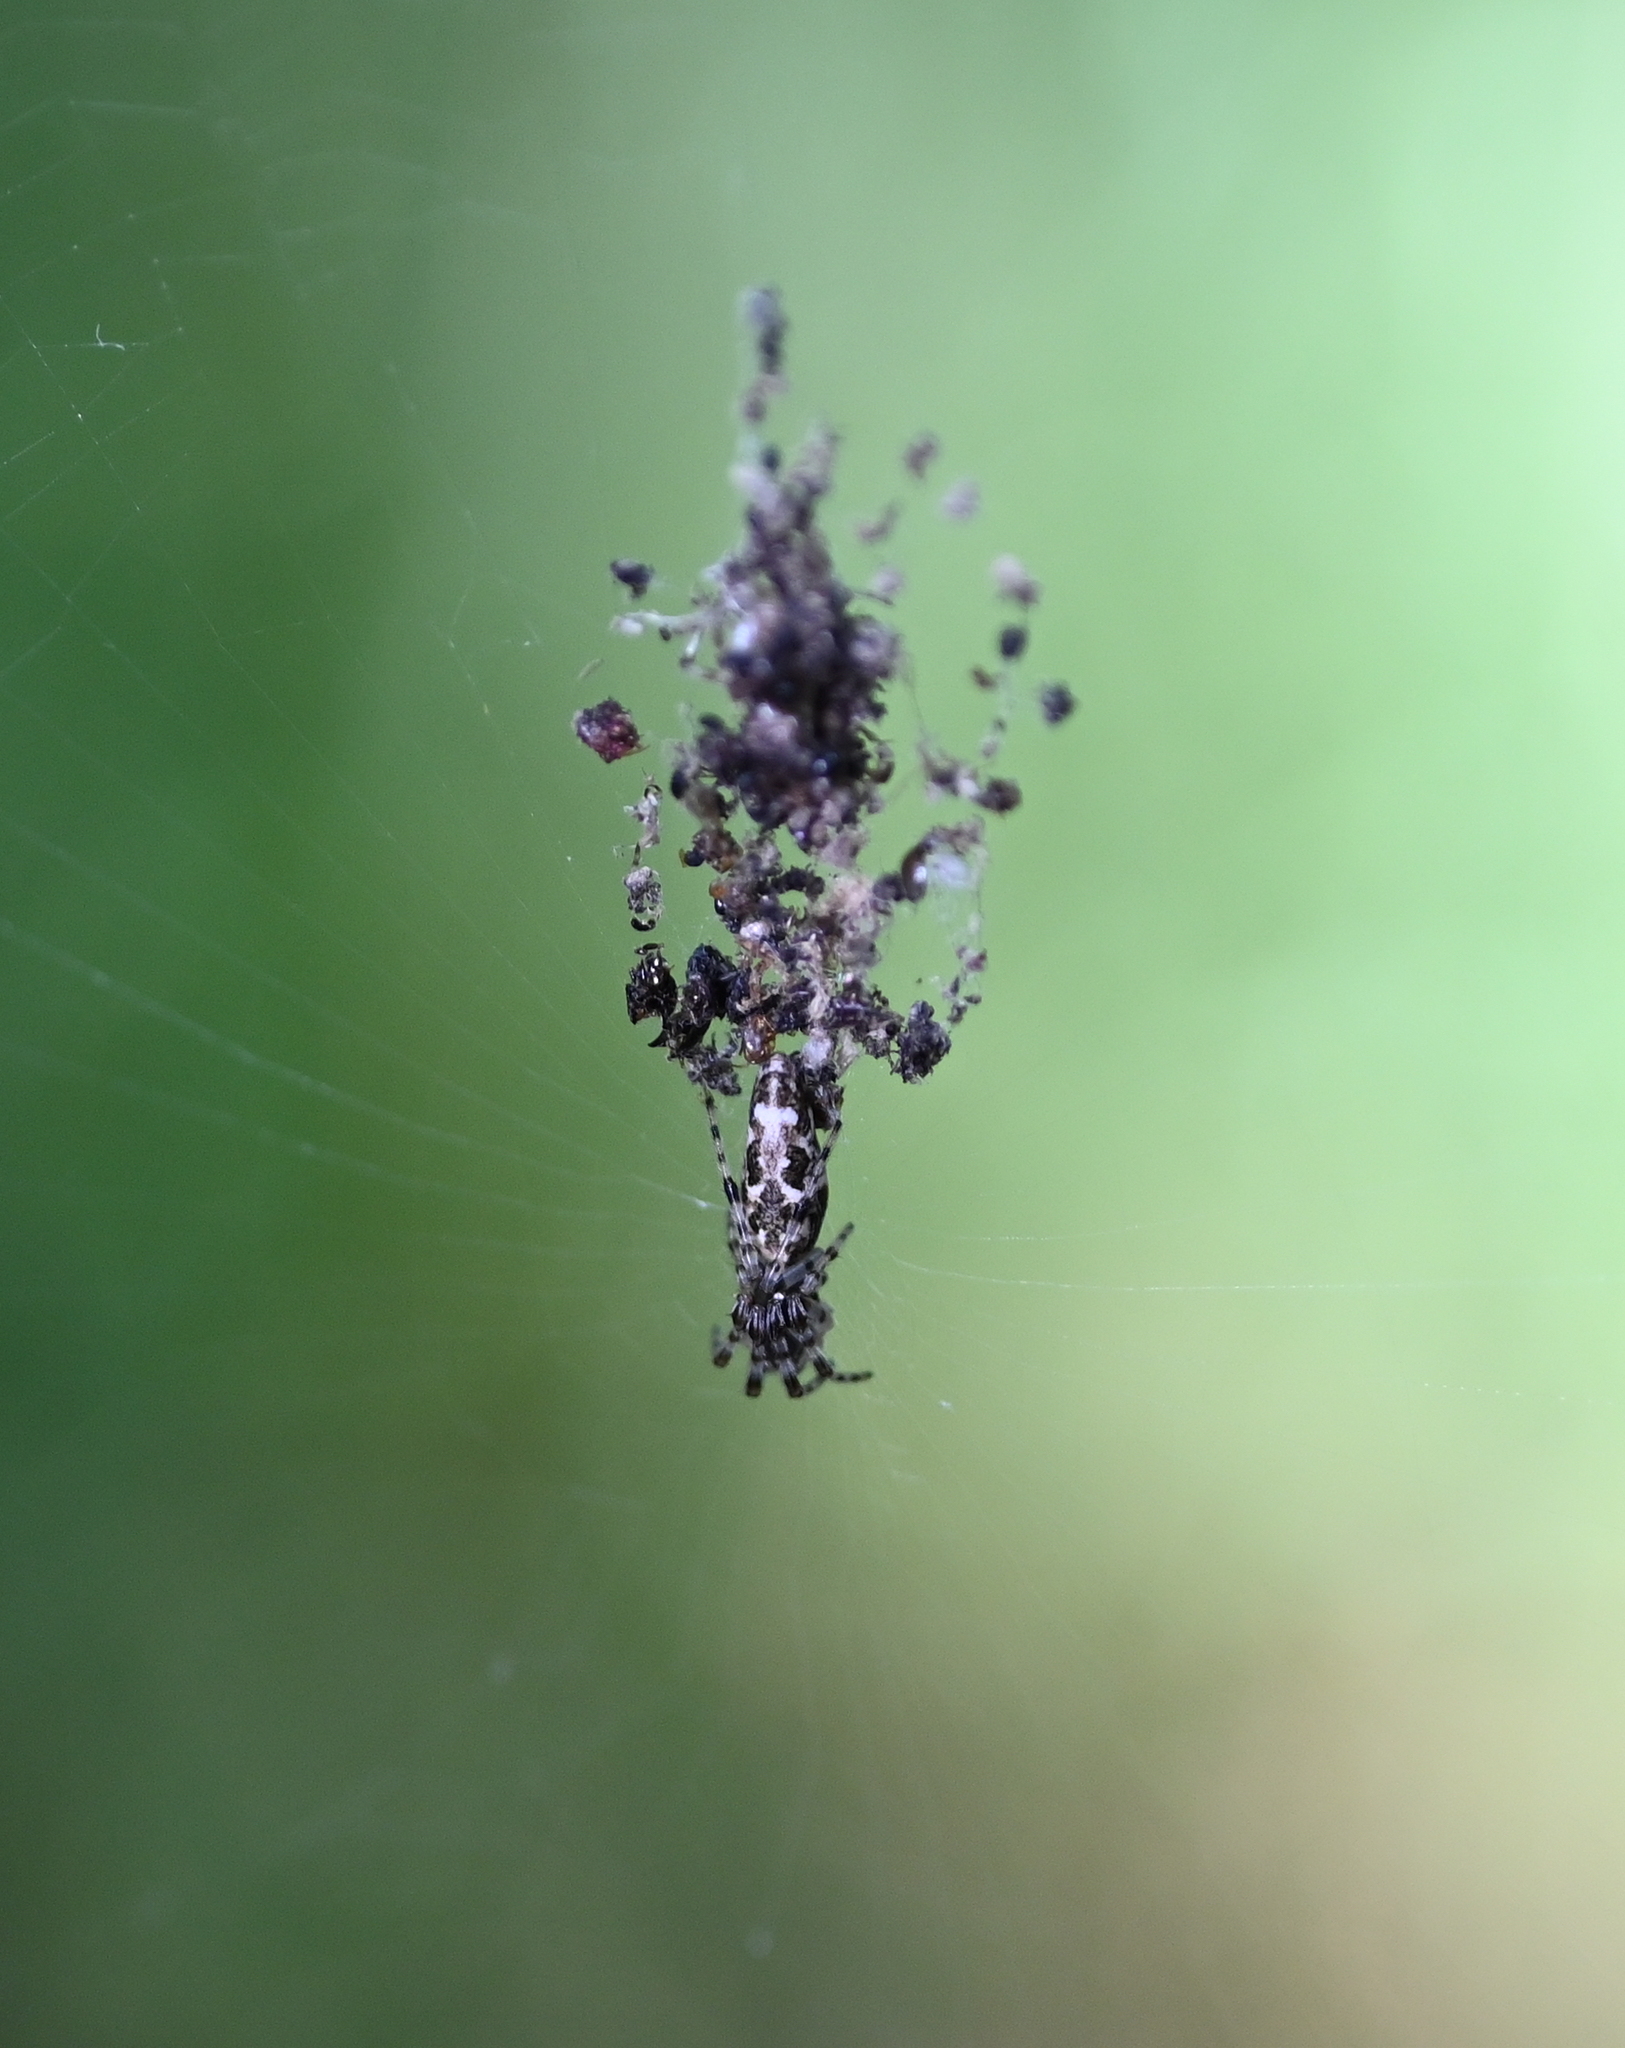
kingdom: Animalia
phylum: Arthropoda
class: Arachnida
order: Araneae
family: Araneidae
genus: Cyclosa
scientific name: Cyclosa caroli
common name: Orb weavers
